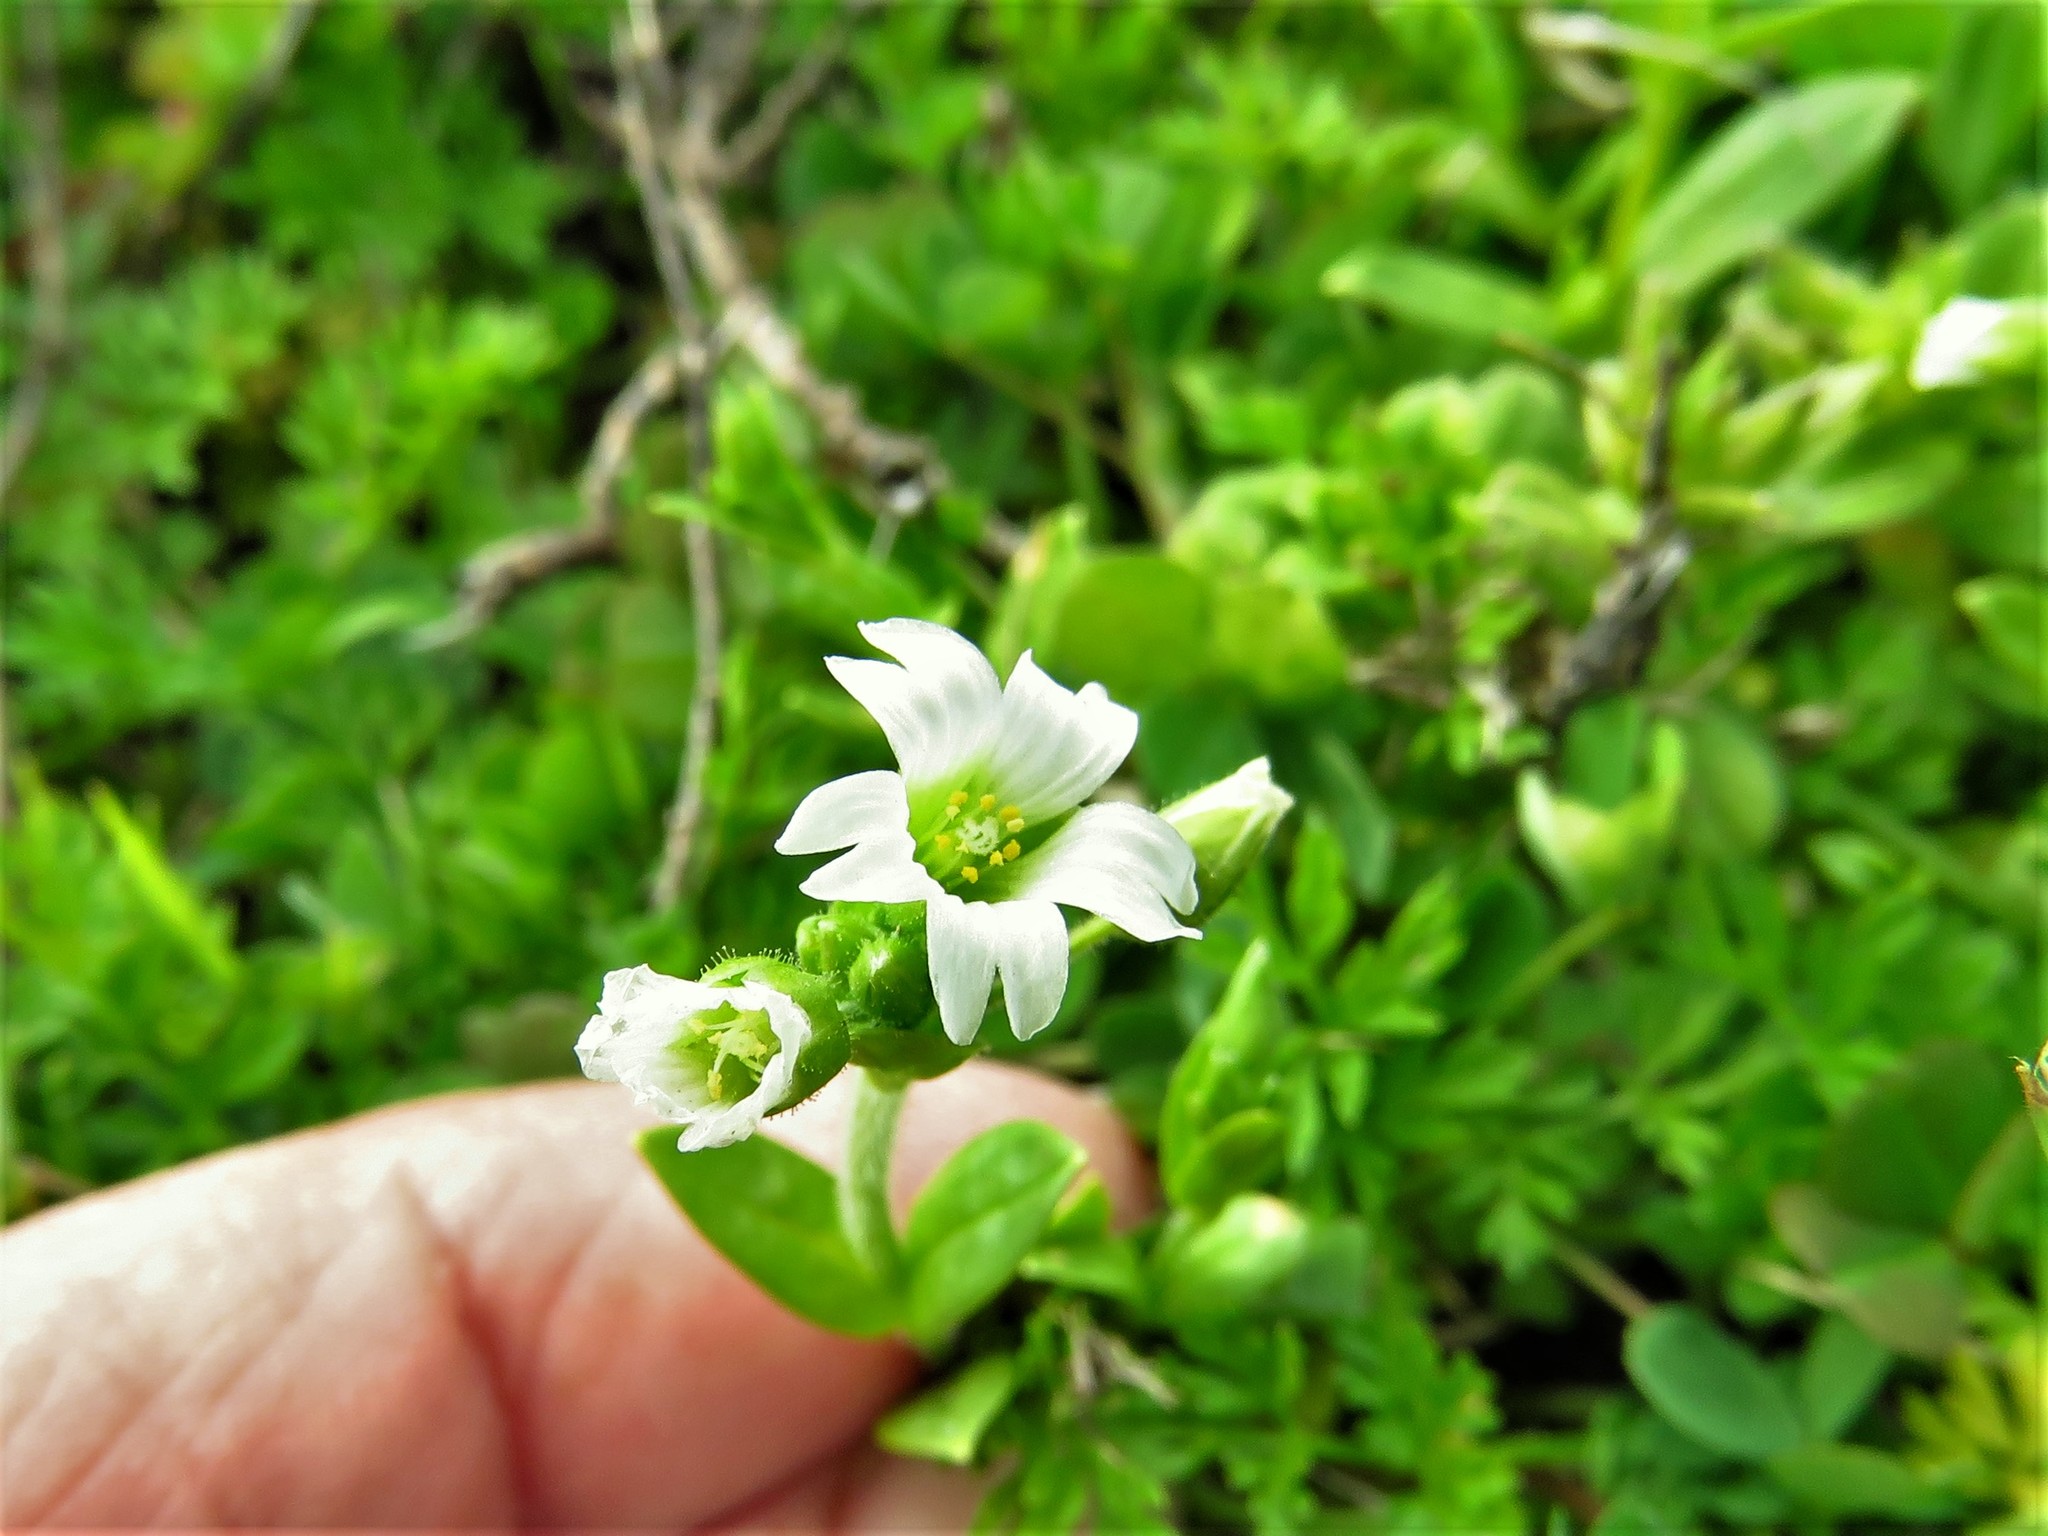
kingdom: Plantae
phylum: Tracheophyta
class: Magnoliopsida
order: Caryophyllales
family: Caryophyllaceae
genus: Cerastium
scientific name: Cerastium fontanum
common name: Common mouse-ear
